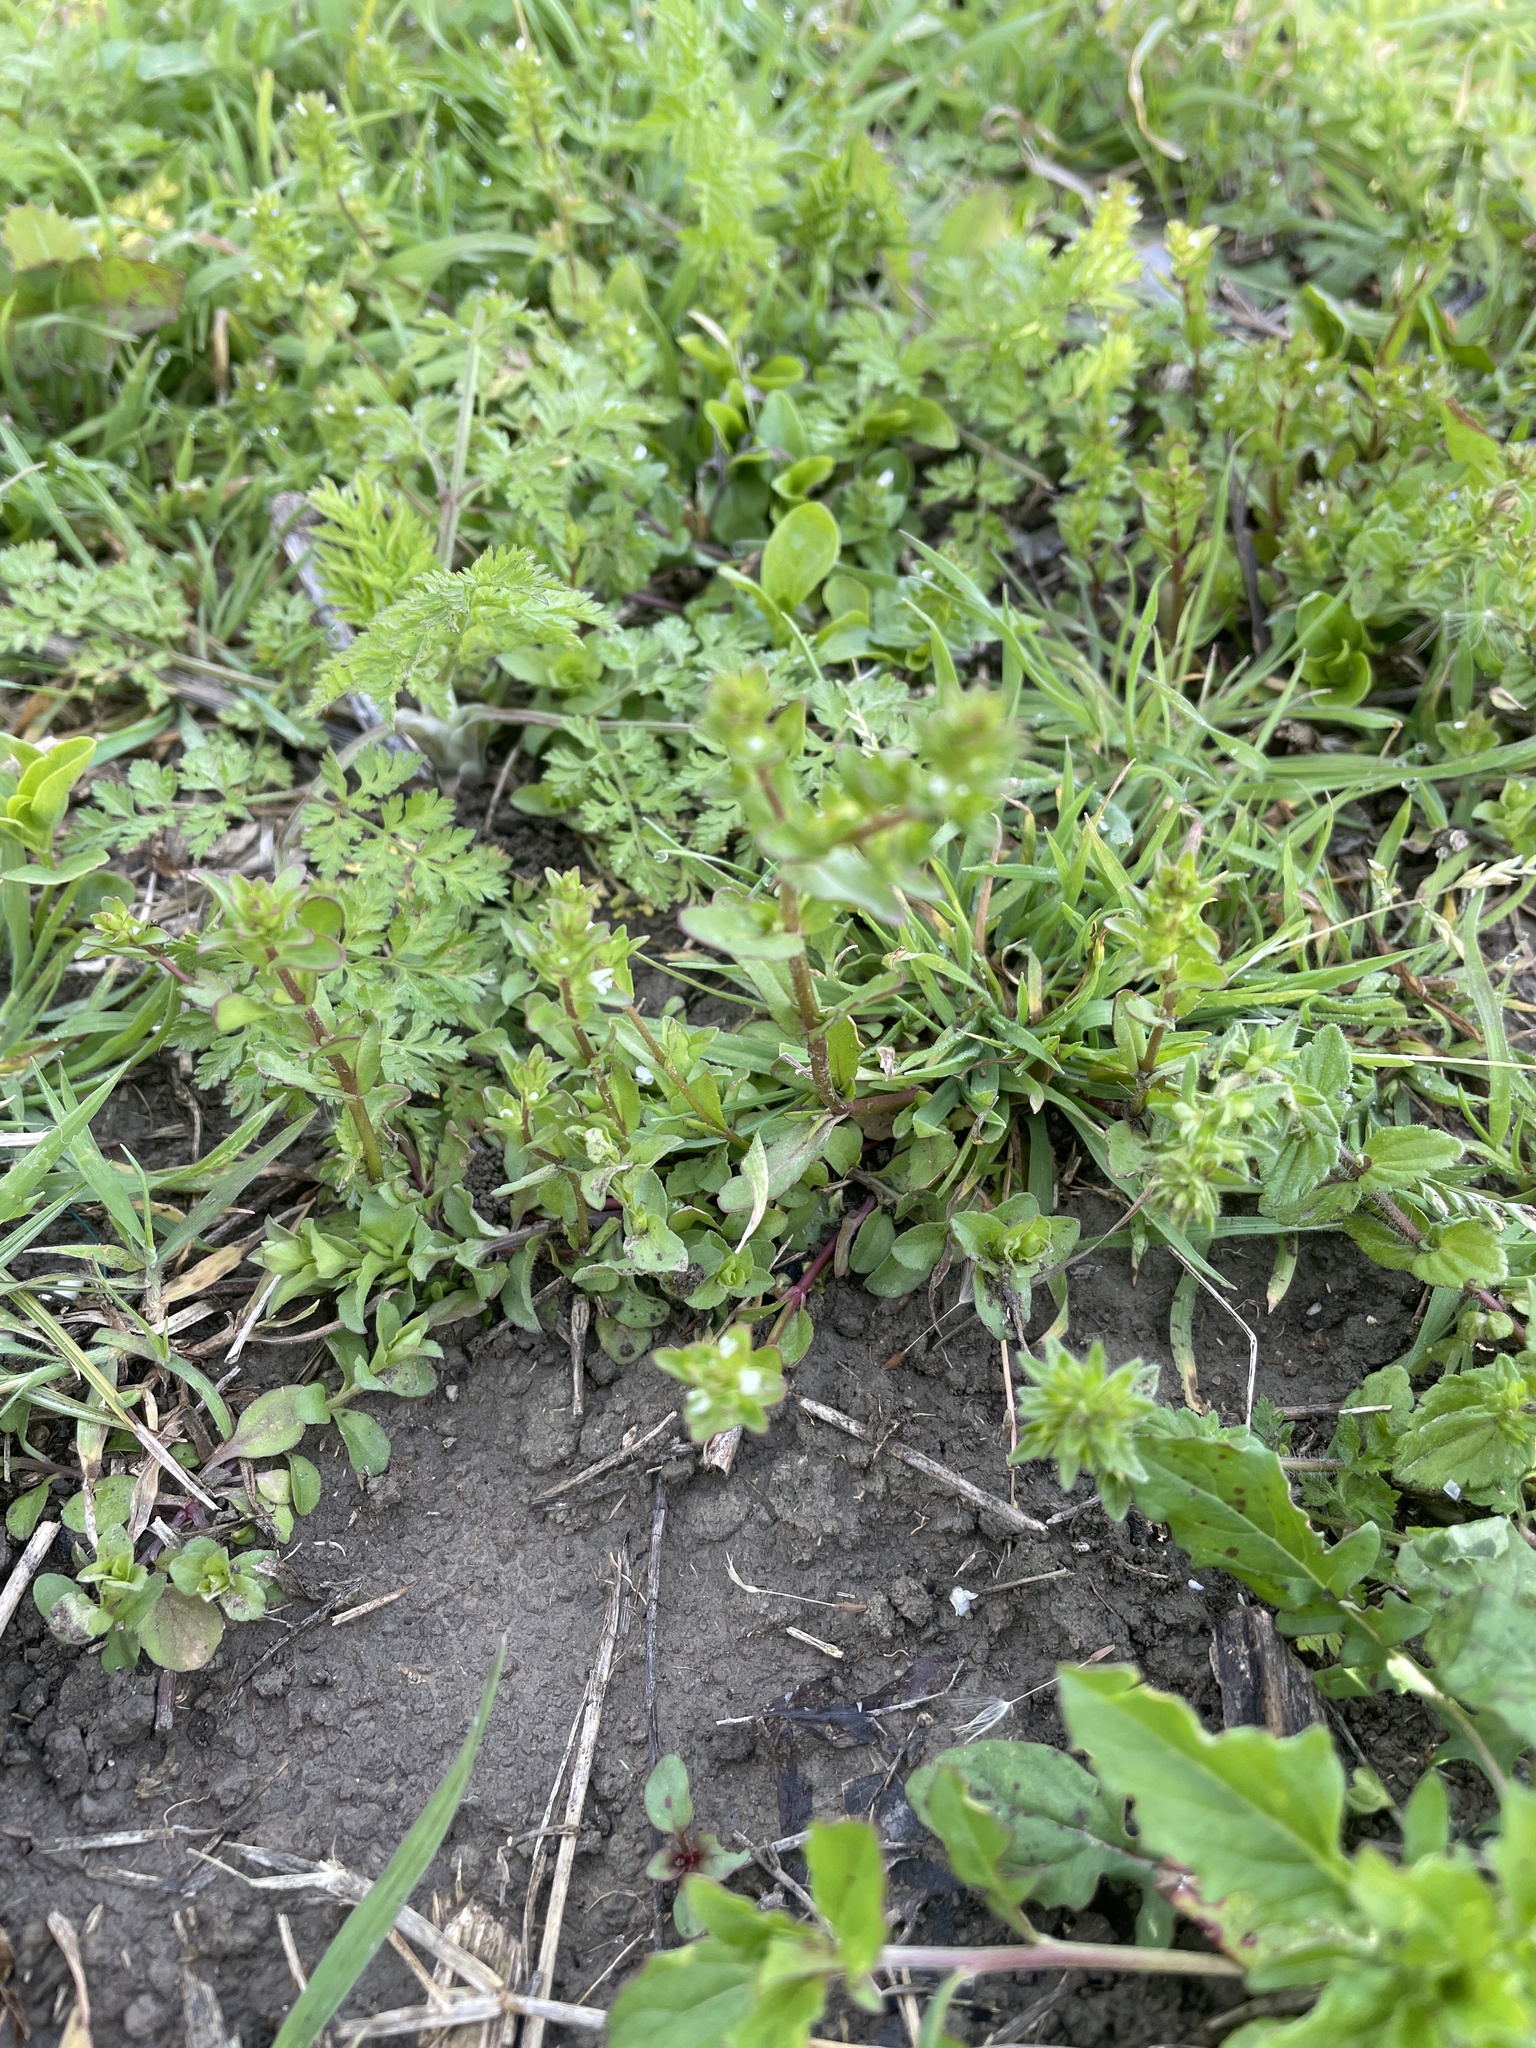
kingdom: Plantae
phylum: Tracheophyta
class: Magnoliopsida
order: Lamiales
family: Plantaginaceae
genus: Veronica
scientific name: Veronica peregrina
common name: Neckweed
